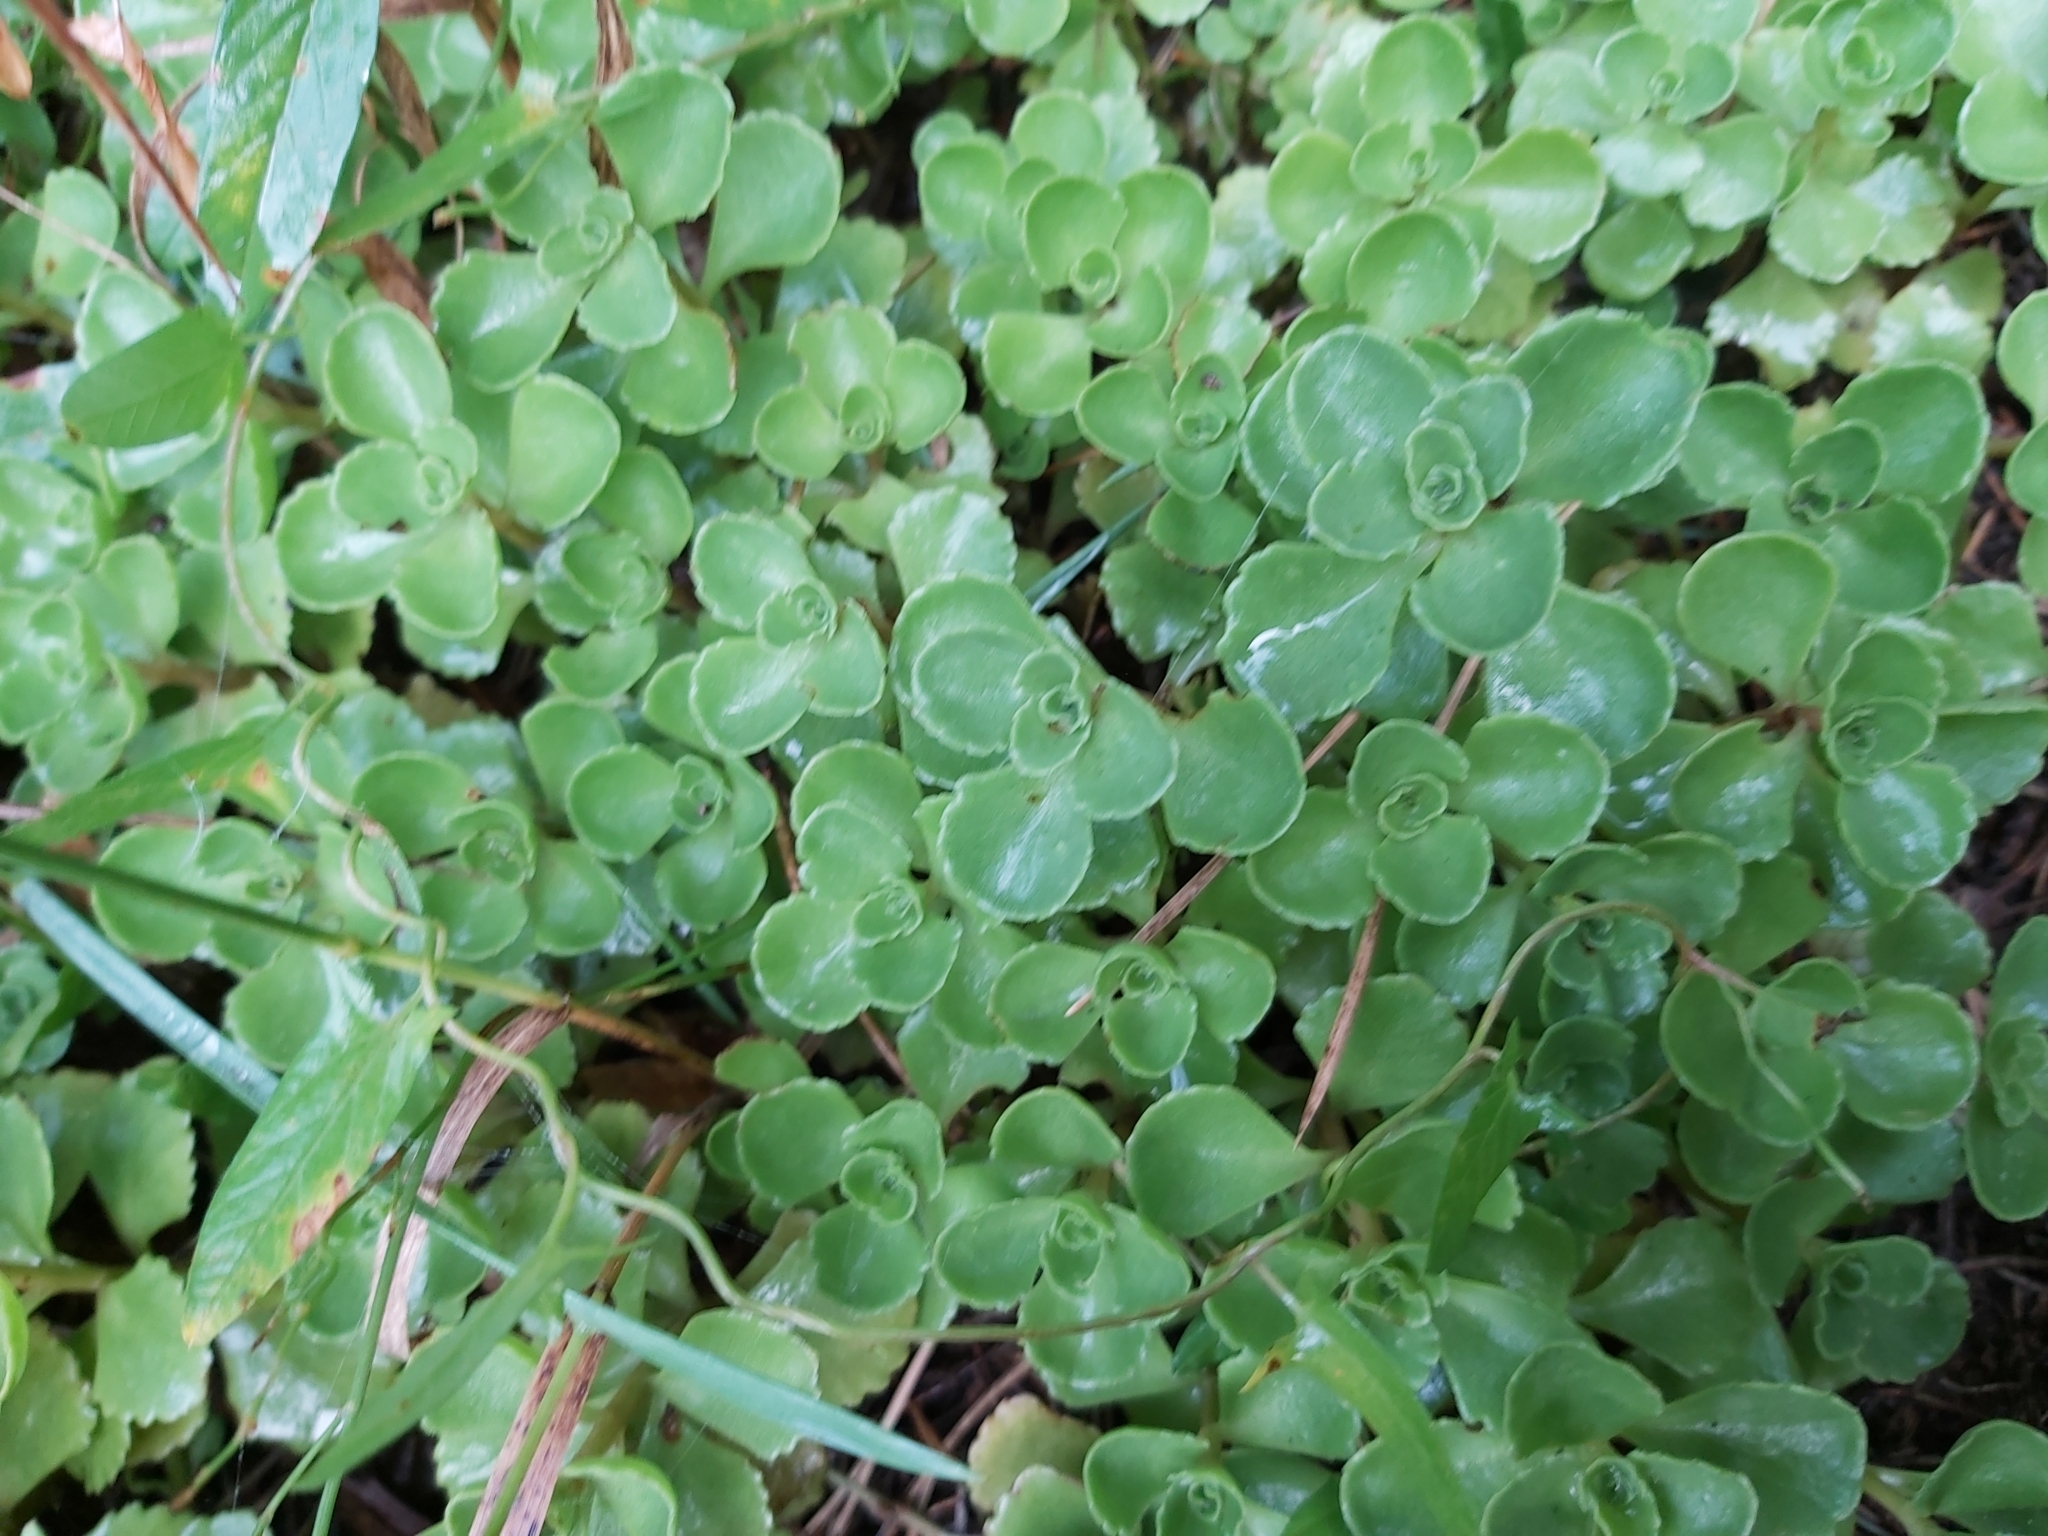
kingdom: Plantae
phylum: Tracheophyta
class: Magnoliopsida
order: Saxifragales
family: Crassulaceae
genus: Phedimus
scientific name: Phedimus spurius
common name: Caucasian stonecrop
